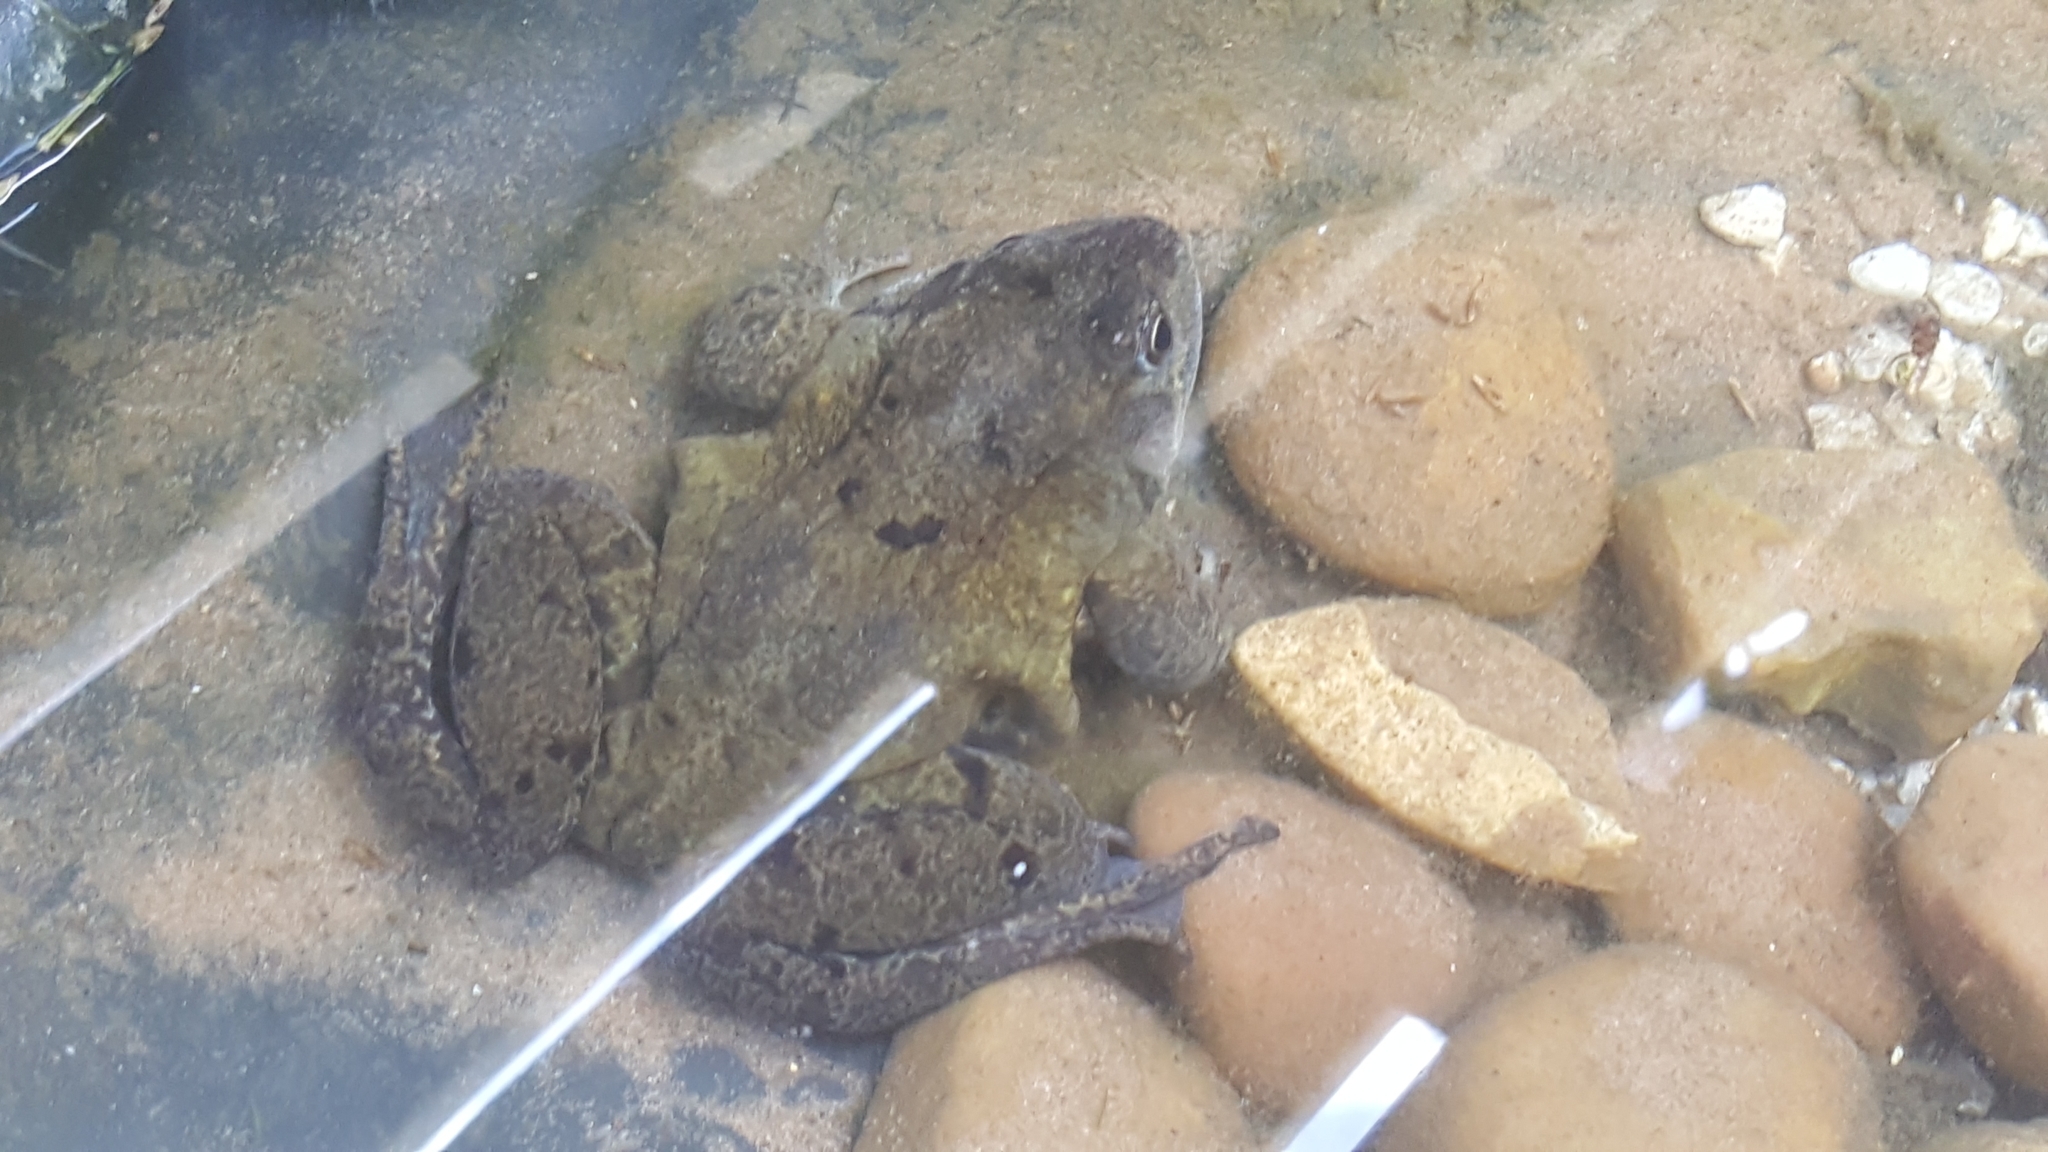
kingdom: Animalia
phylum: Chordata
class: Amphibia
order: Anura
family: Ranidae
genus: Rana
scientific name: Rana temporaria
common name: Common frog
